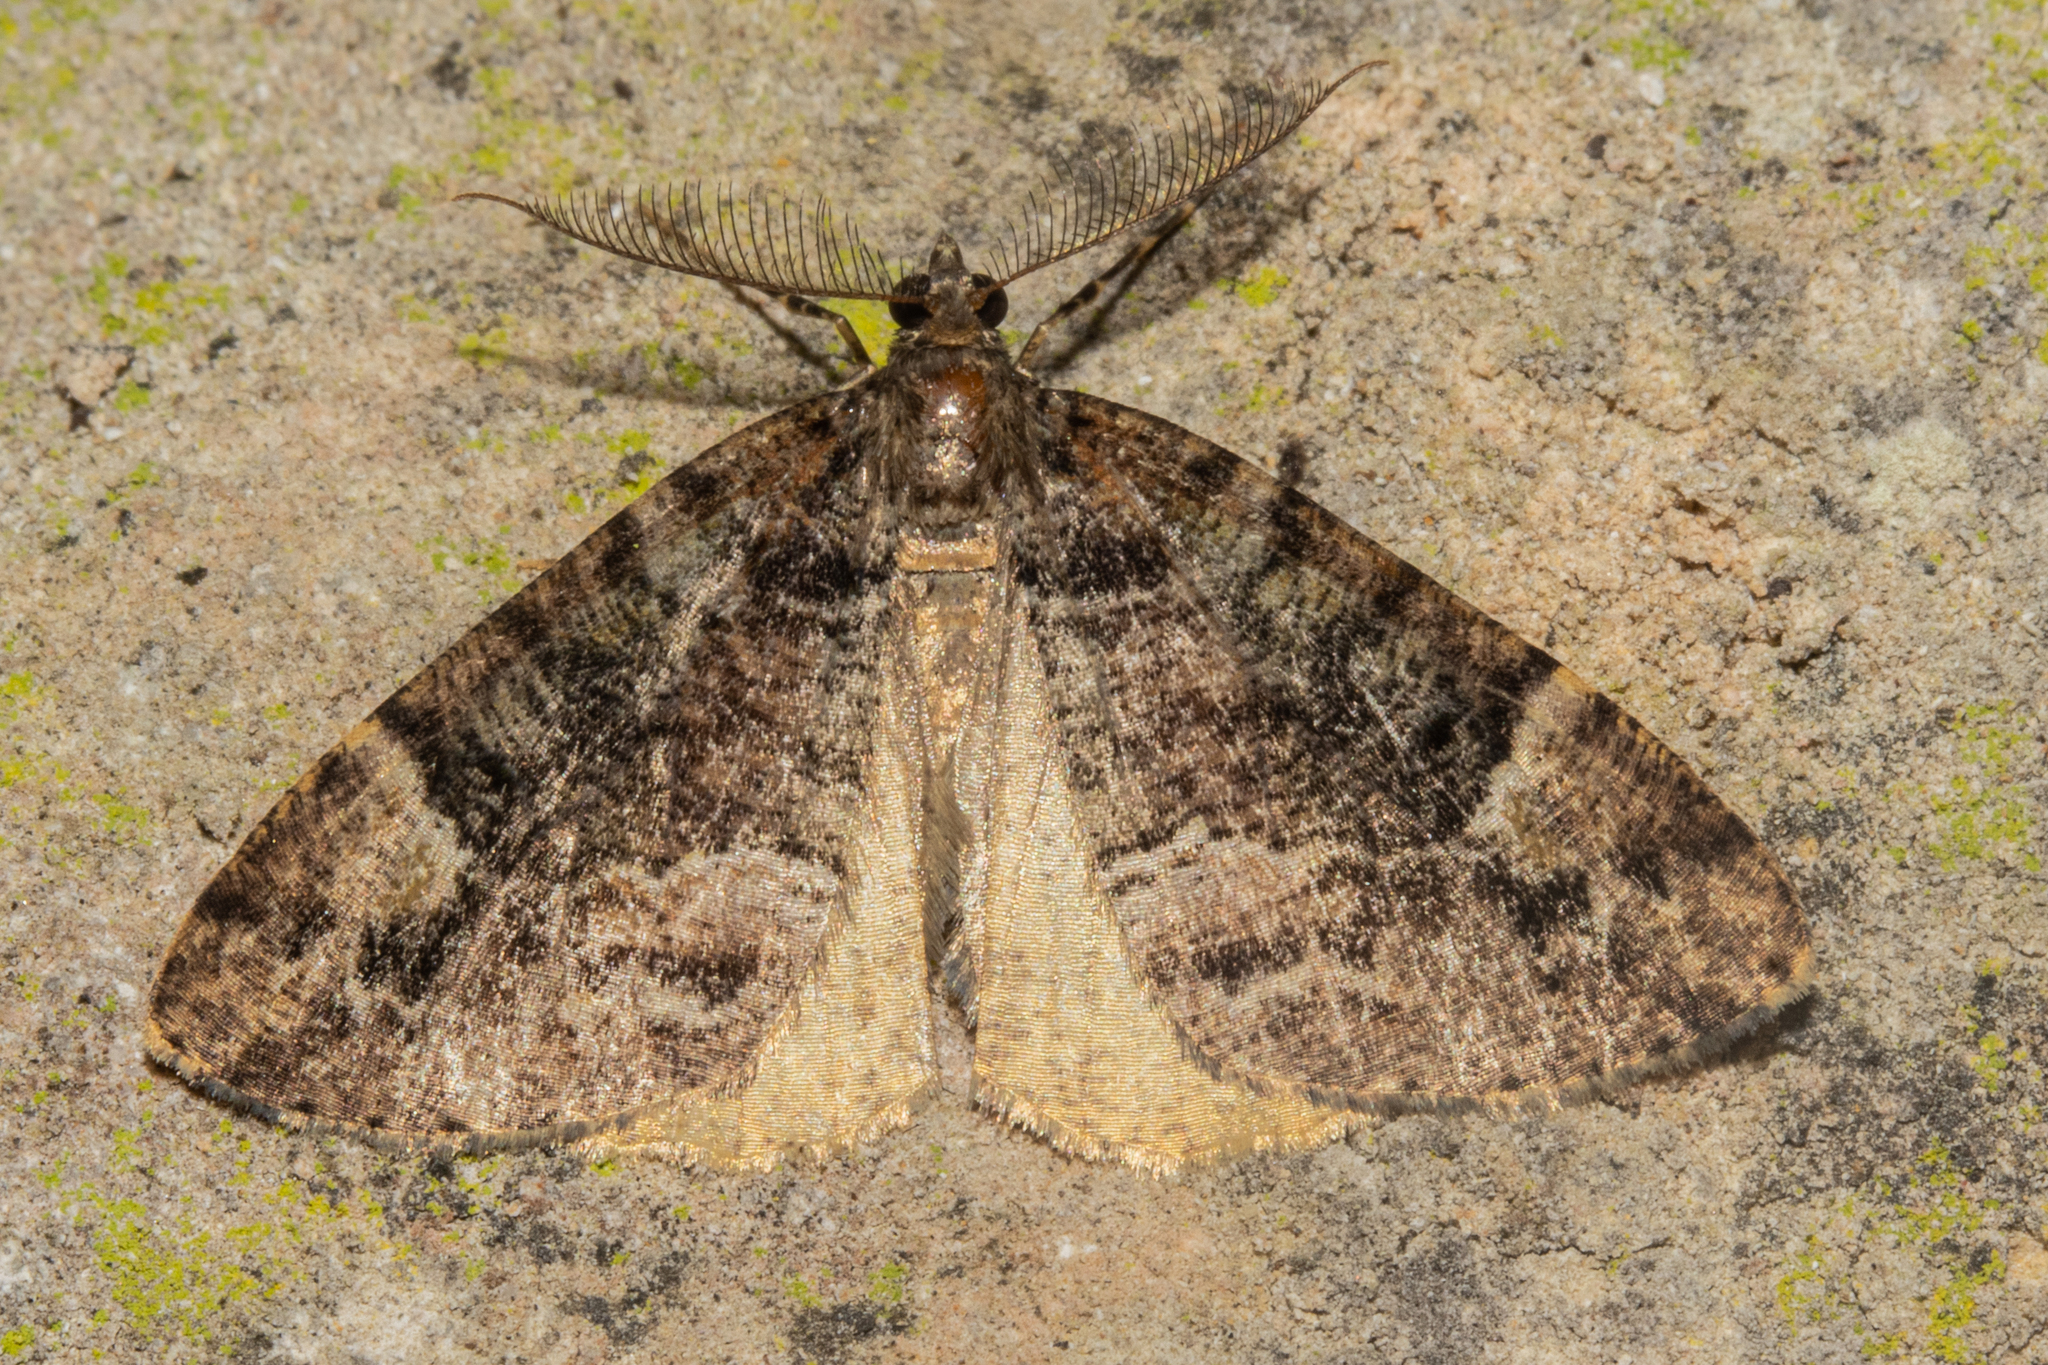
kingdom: Animalia
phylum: Arthropoda
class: Insecta
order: Lepidoptera
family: Geometridae
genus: Pseudocoremia
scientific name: Pseudocoremia productata
